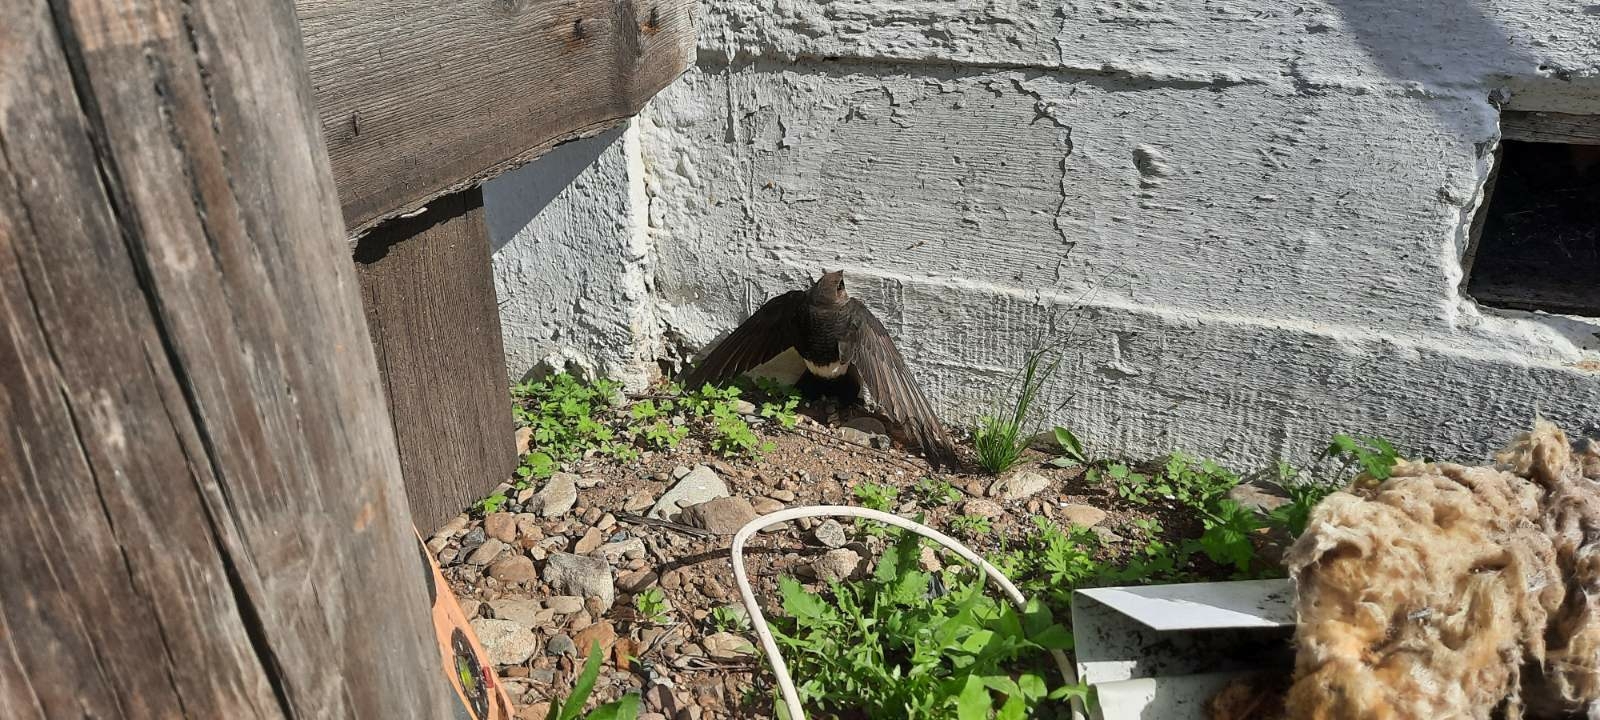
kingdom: Animalia
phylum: Chordata
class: Aves
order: Apodiformes
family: Apodidae
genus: Apus
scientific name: Apus pacificus
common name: Pacific swift
